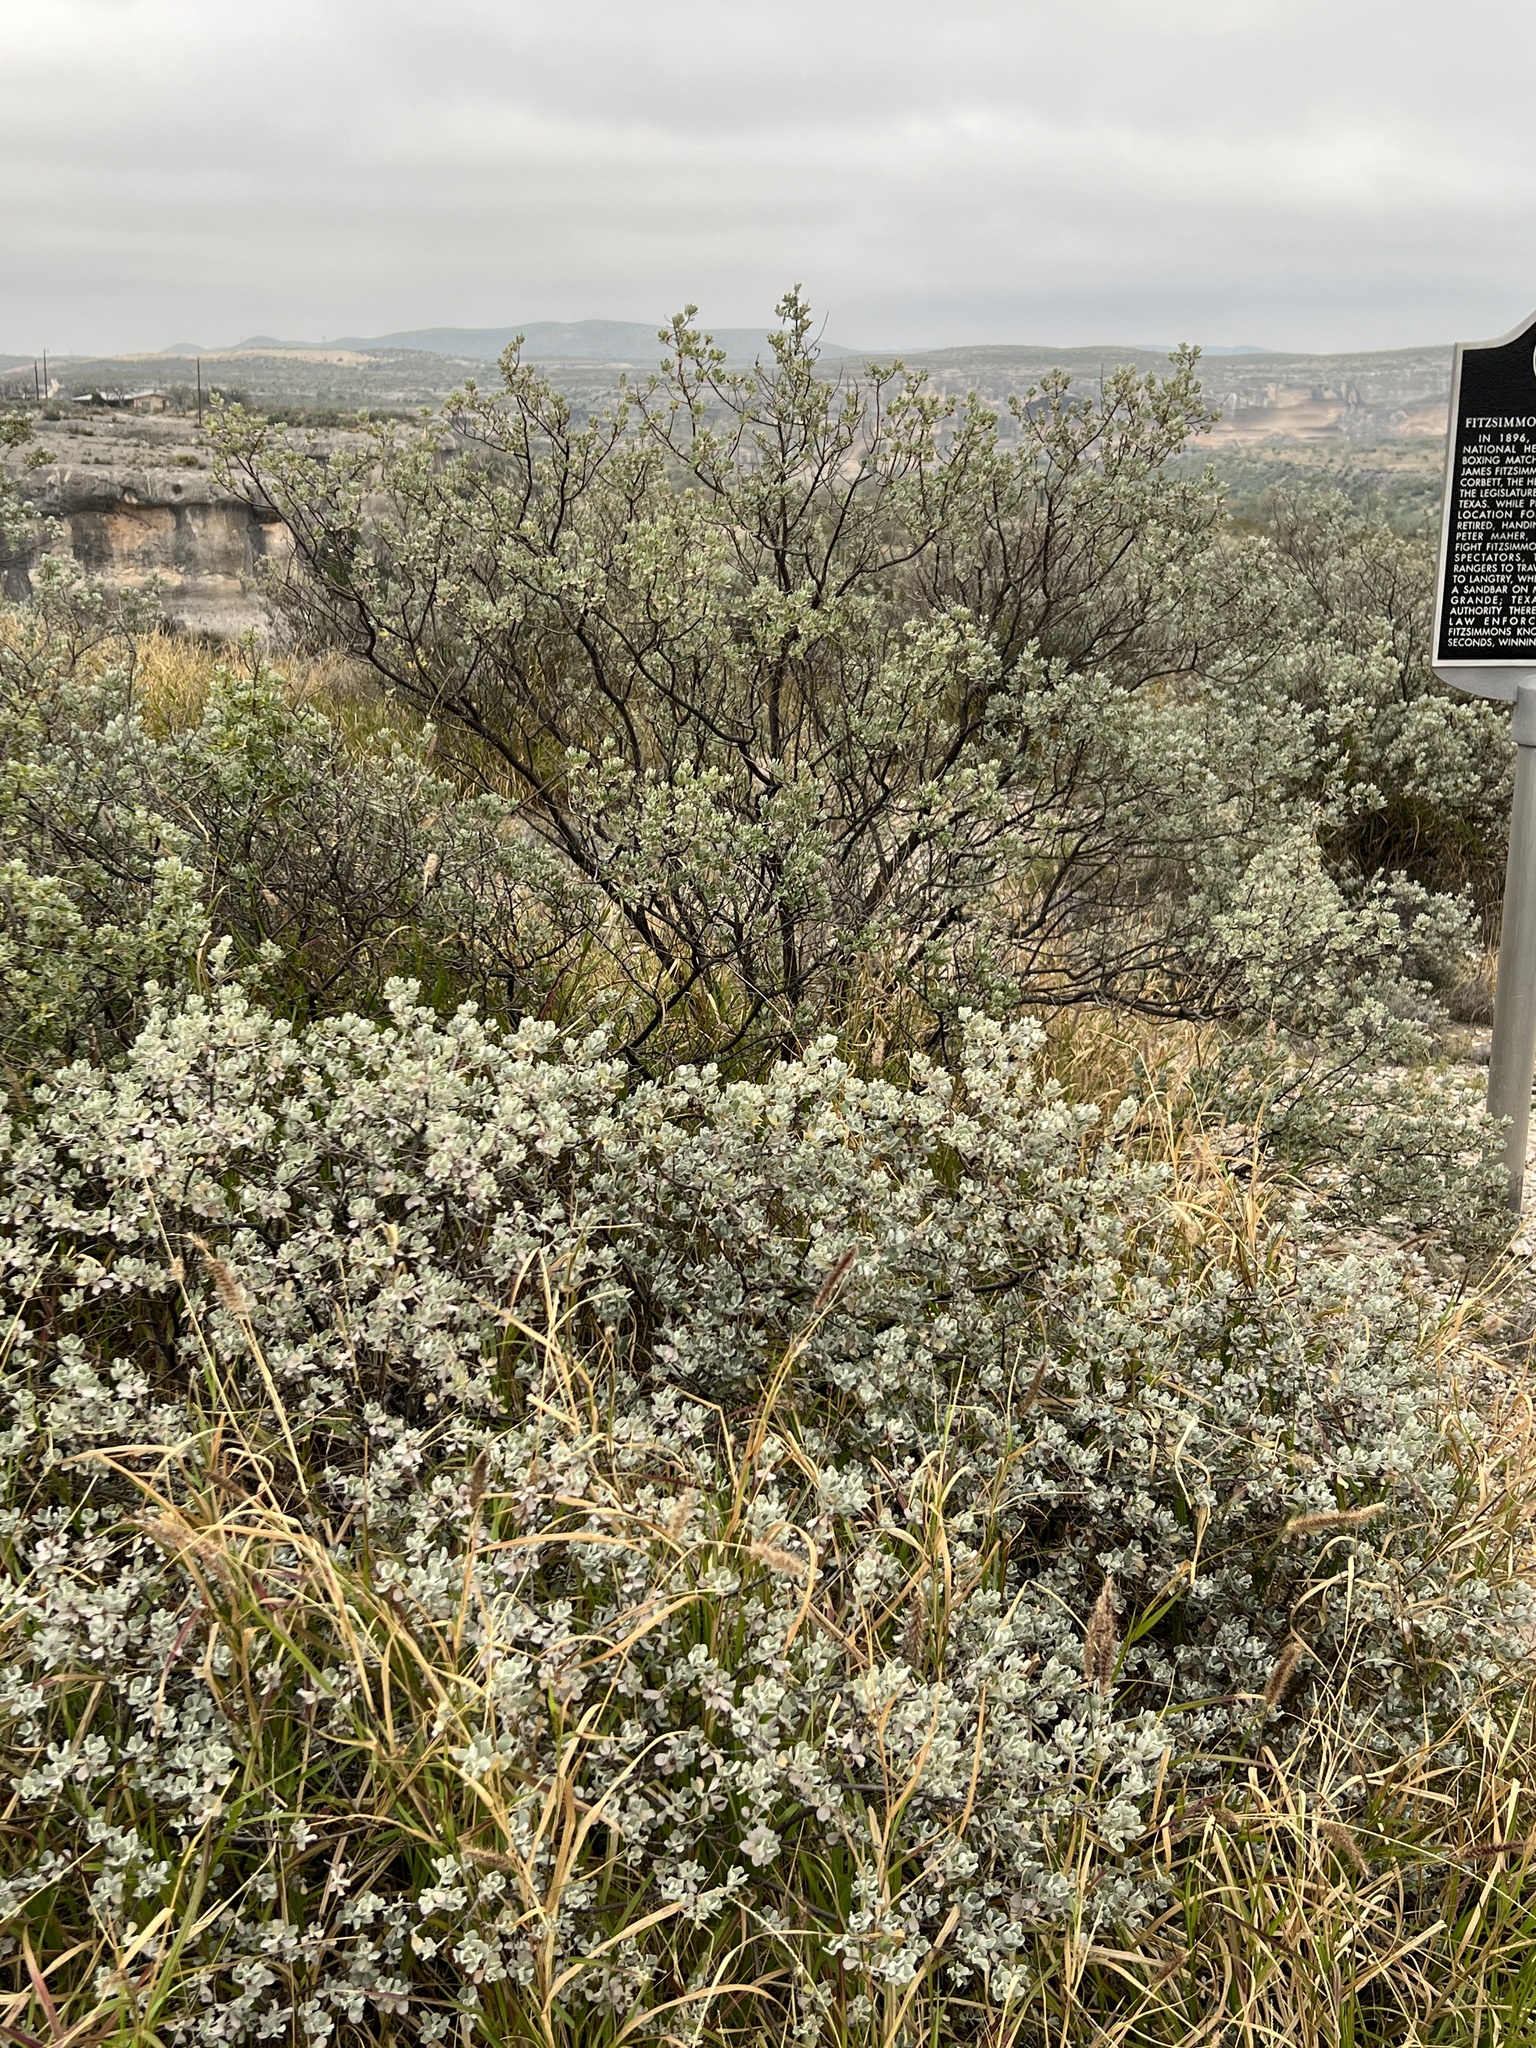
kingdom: Plantae
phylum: Tracheophyta
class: Magnoliopsida
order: Lamiales
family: Scrophulariaceae
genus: Leucophyllum
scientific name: Leucophyllum frutescens
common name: Texas silverleaf
